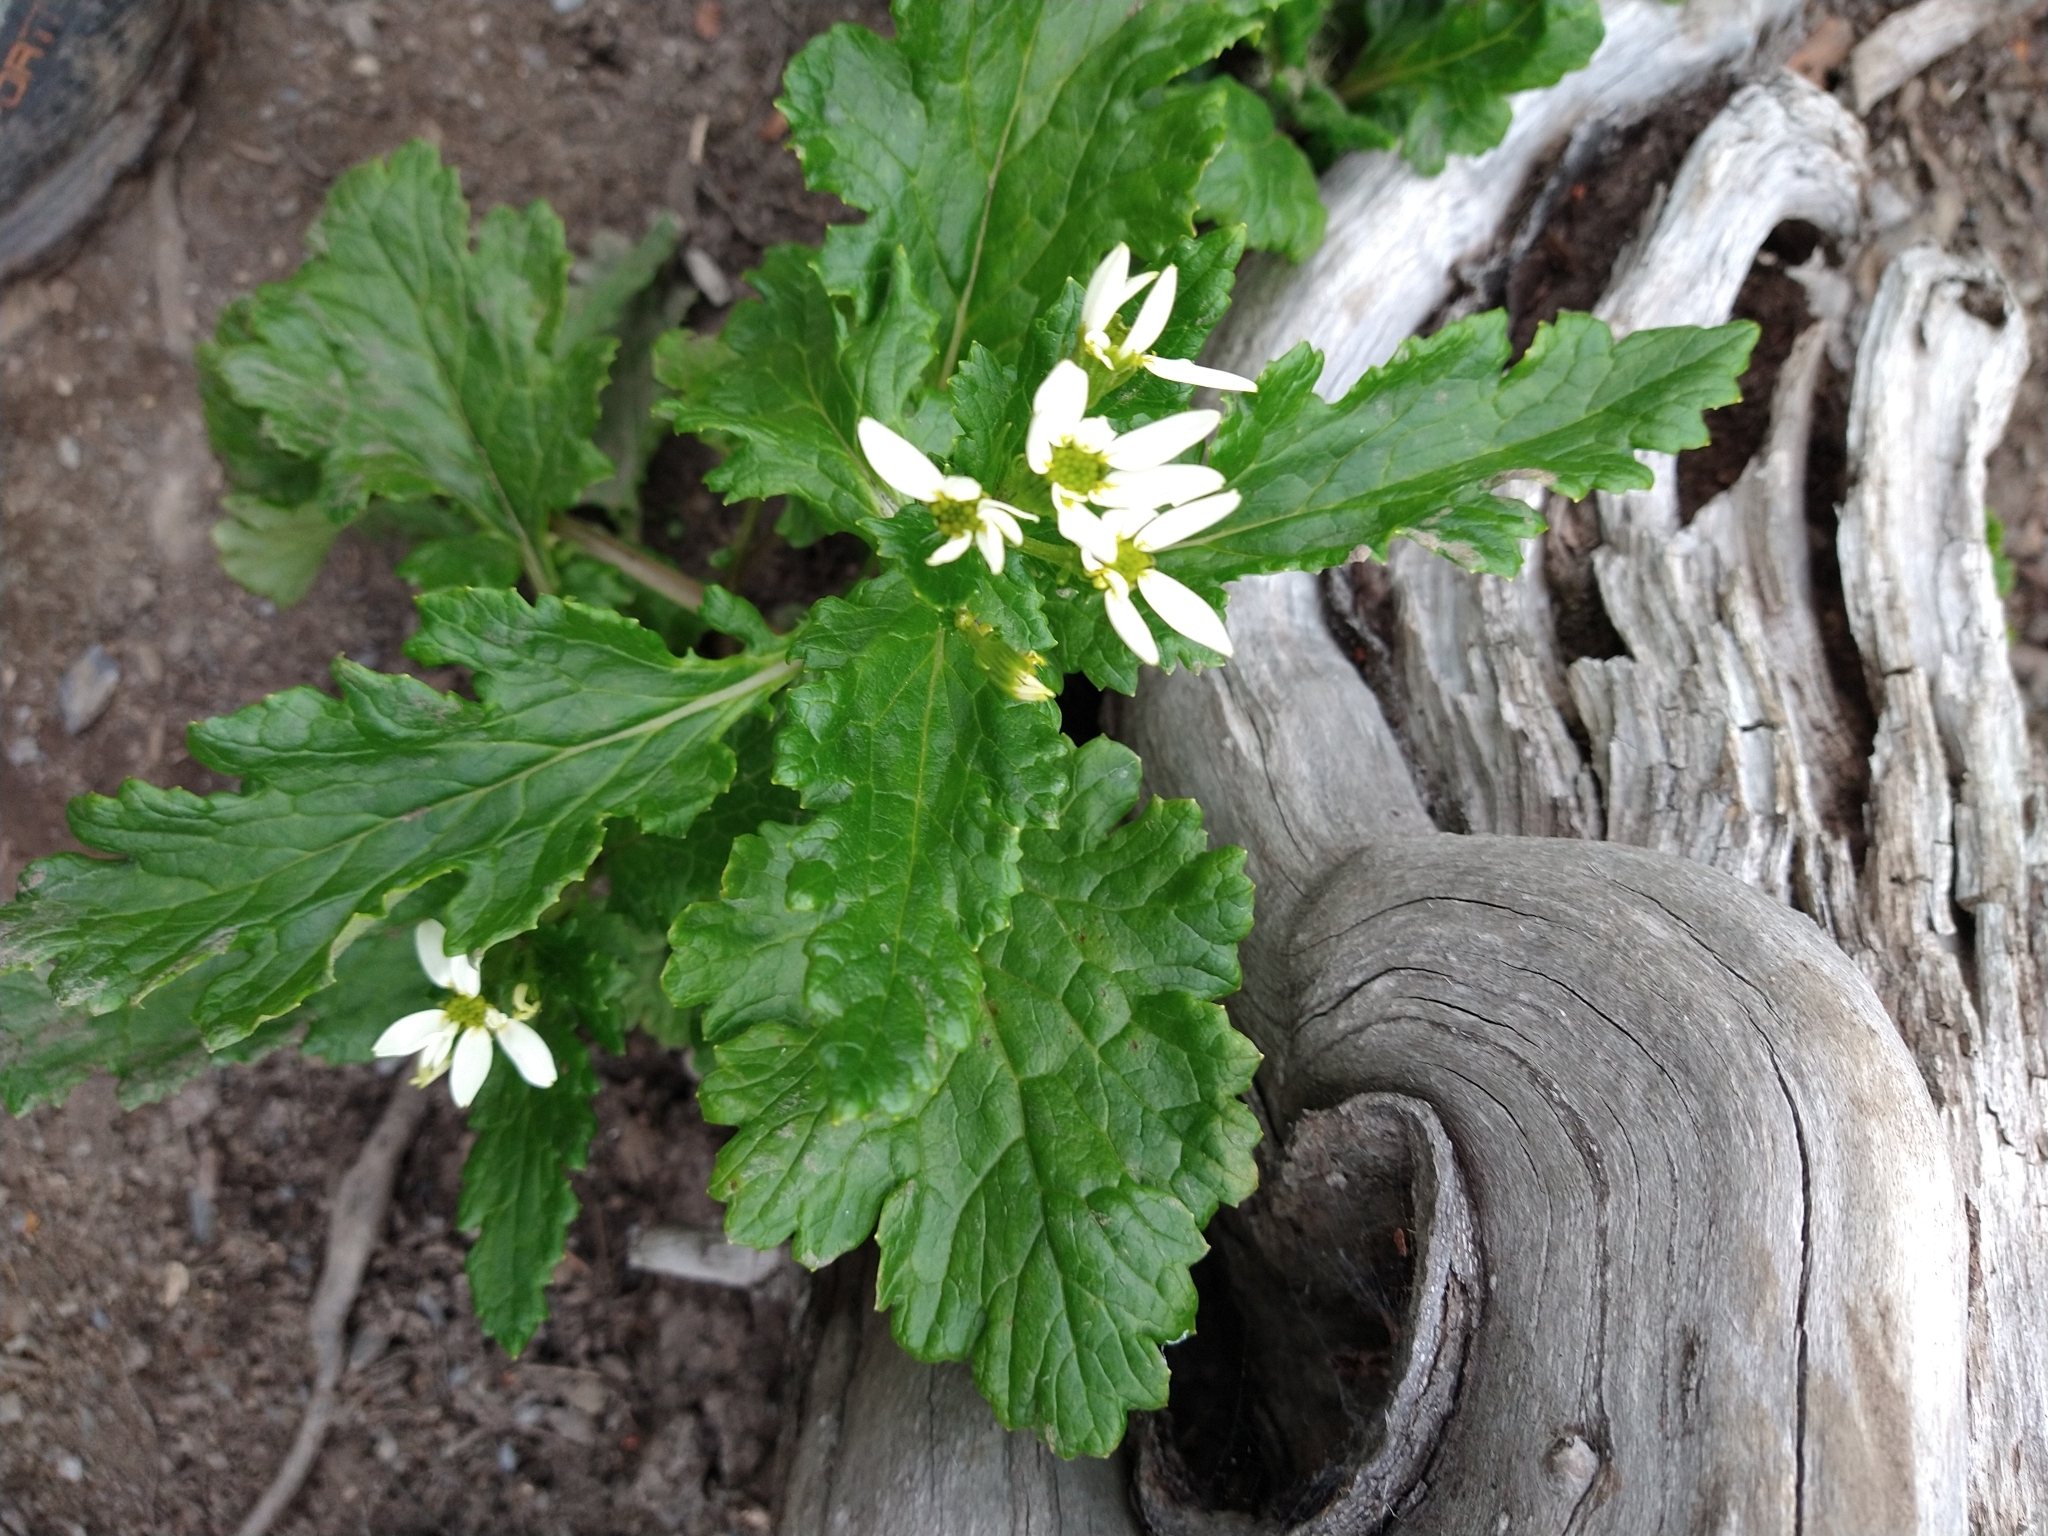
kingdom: Plantae
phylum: Tracheophyta
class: Magnoliopsida
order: Asterales
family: Asteraceae
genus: Iocenes
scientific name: Iocenes virens
